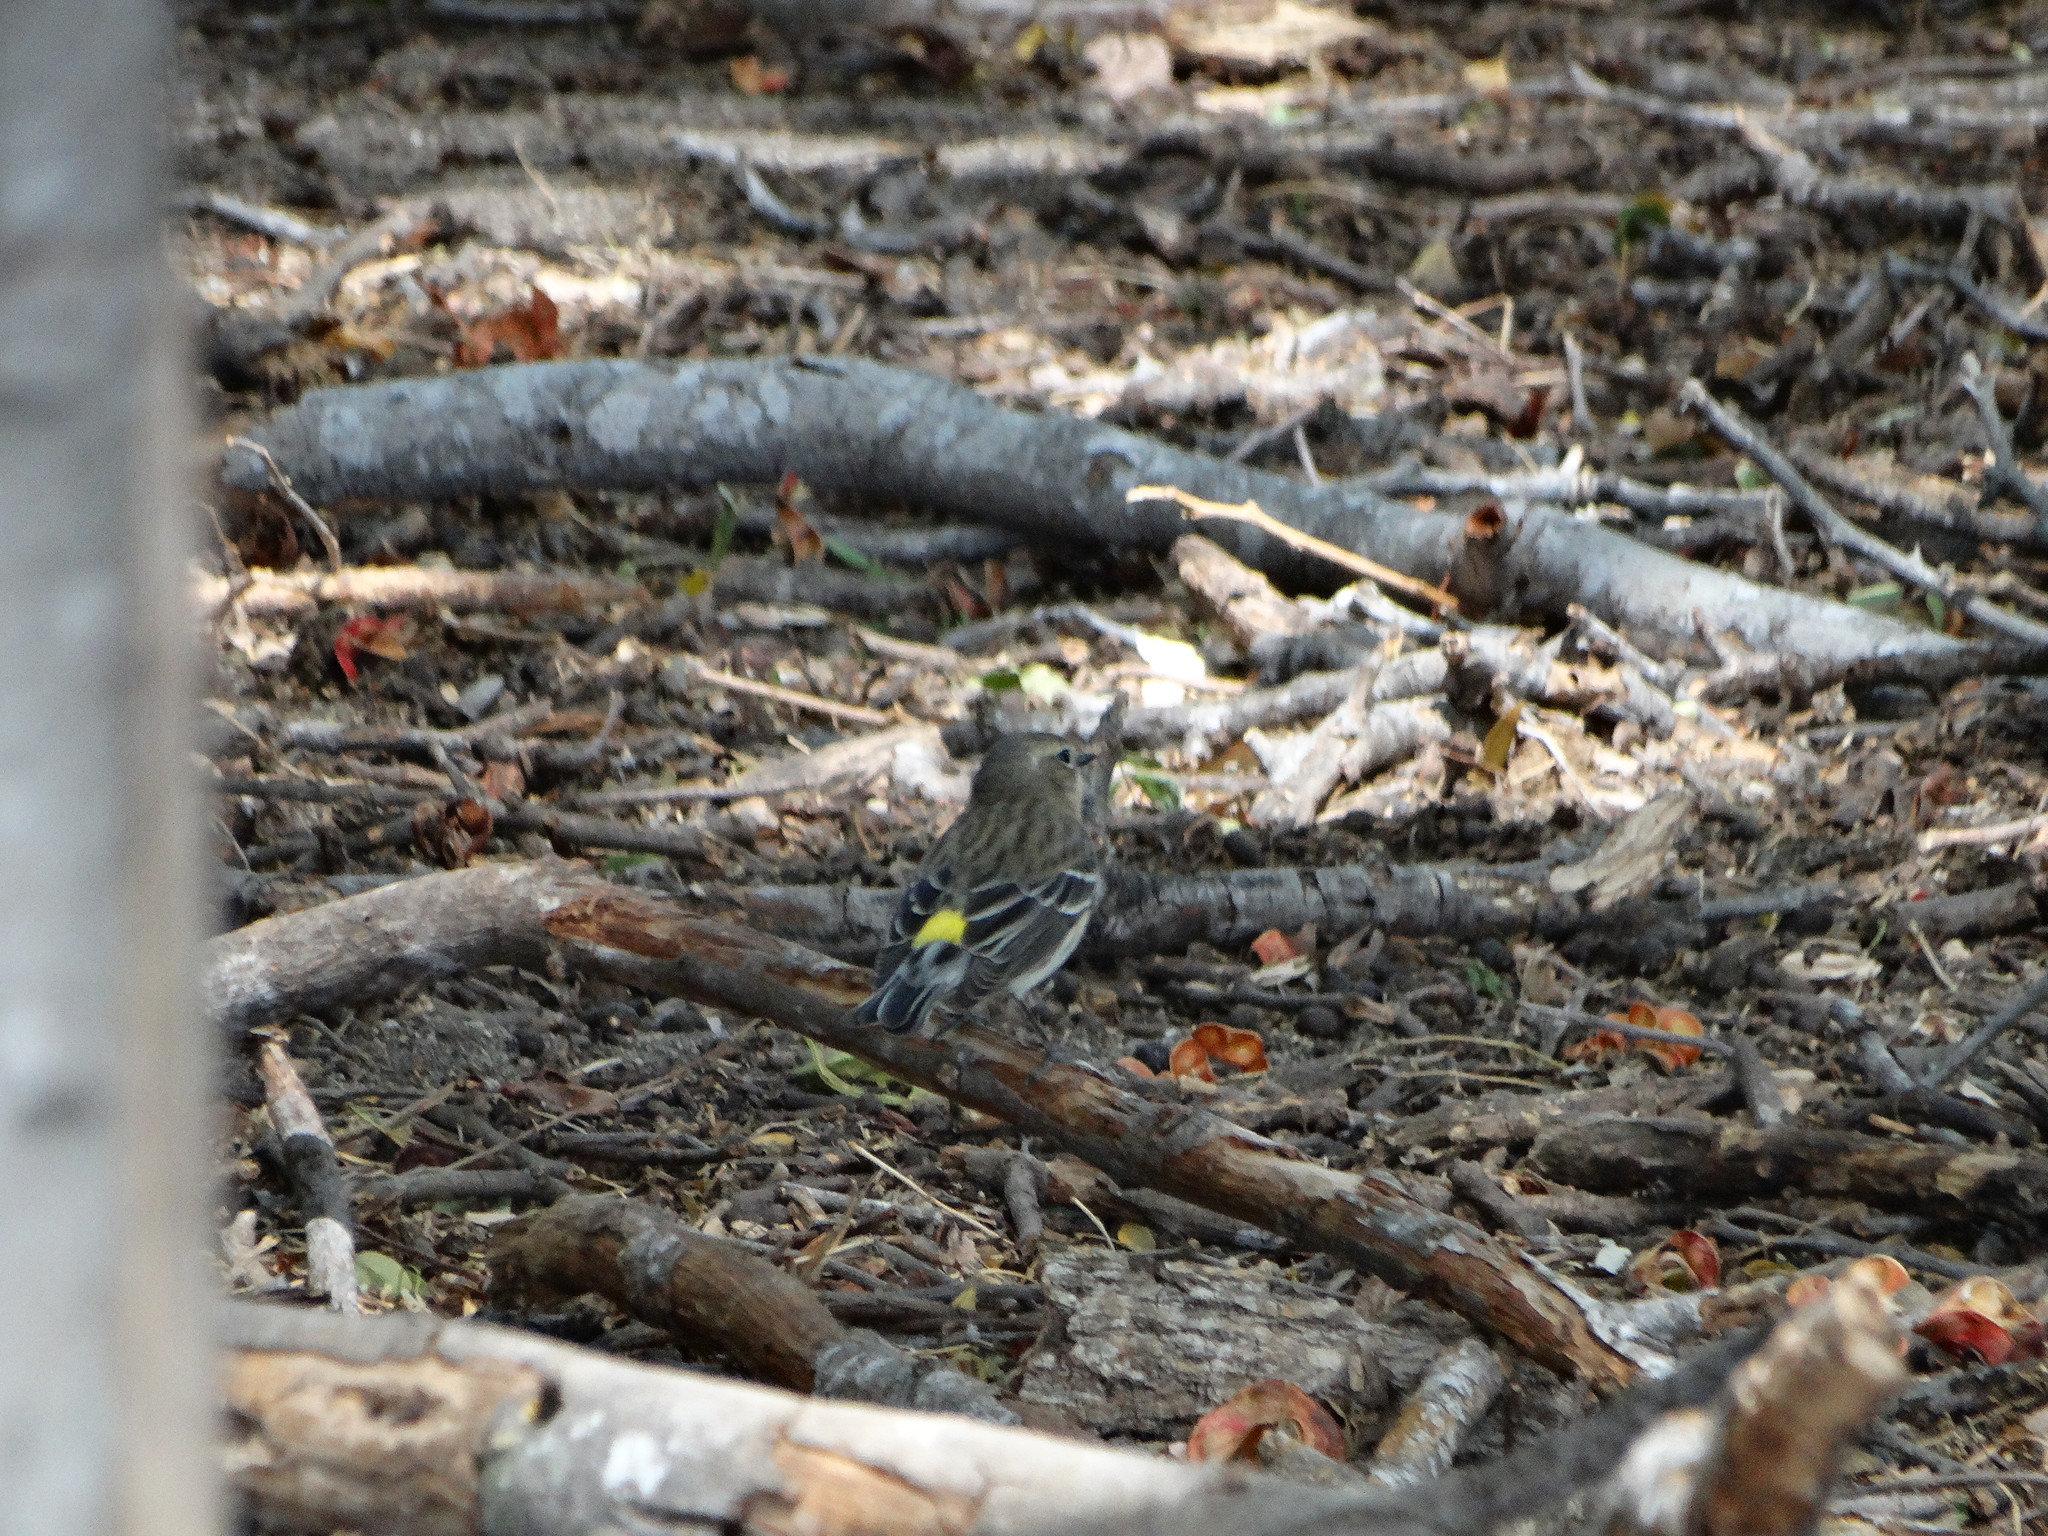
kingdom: Animalia
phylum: Chordata
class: Aves
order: Passeriformes
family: Parulidae
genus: Setophaga
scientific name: Setophaga coronata
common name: Myrtle warbler
